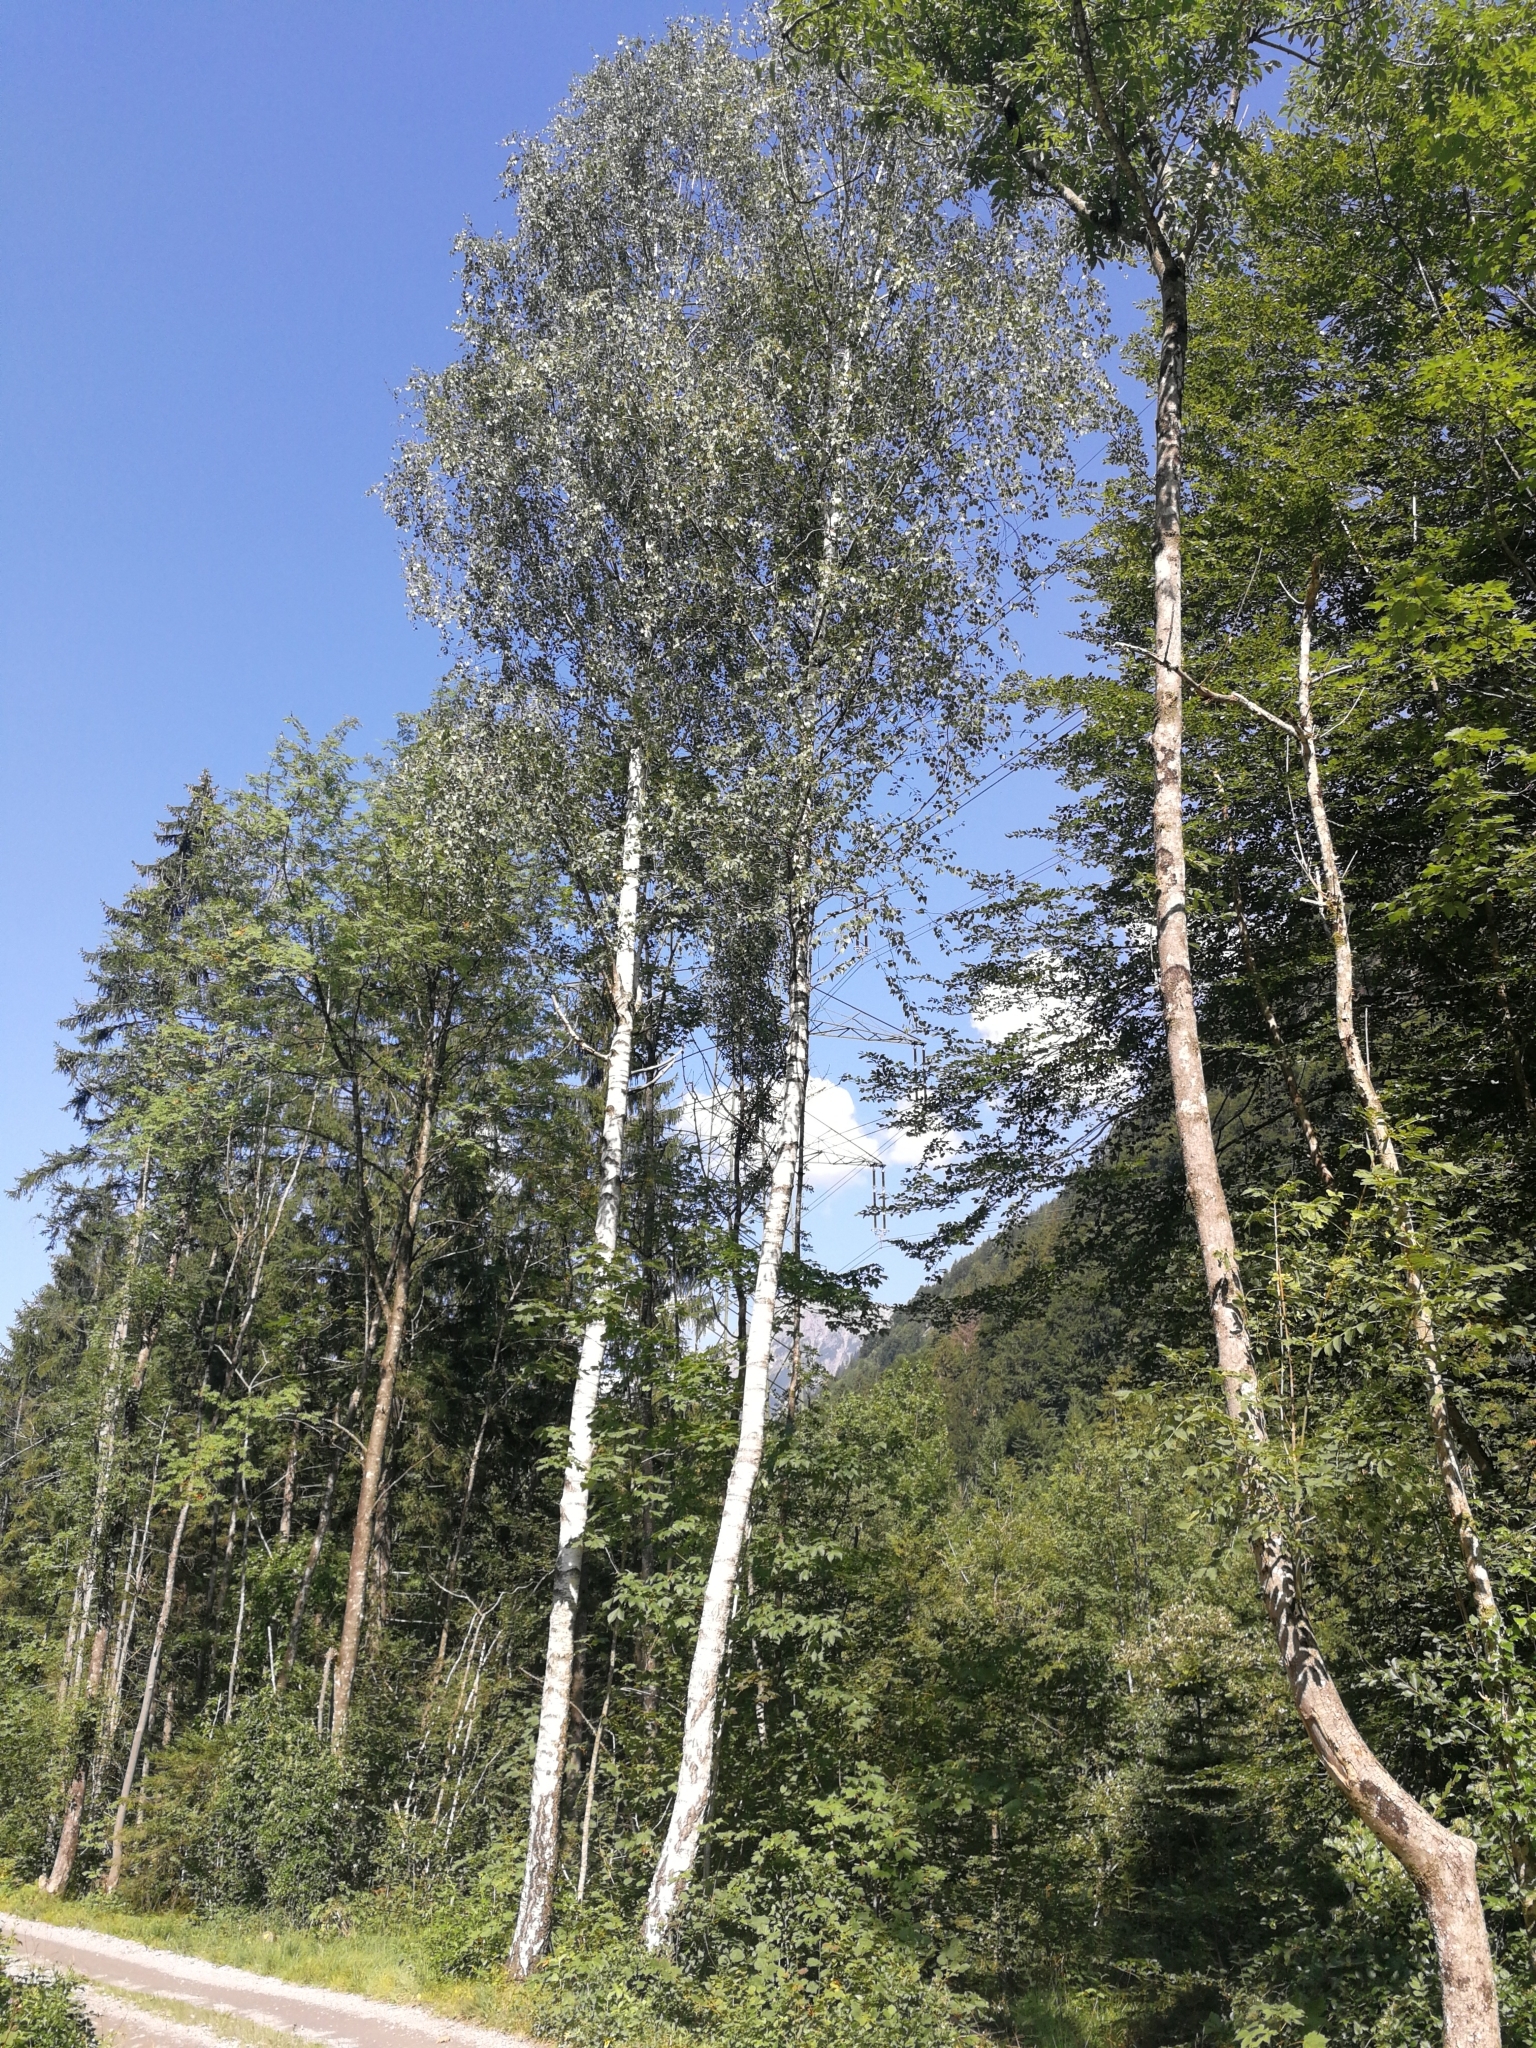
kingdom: Plantae
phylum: Tracheophyta
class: Magnoliopsida
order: Fagales
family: Betulaceae
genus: Betula
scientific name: Betula pendula
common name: Silver birch
